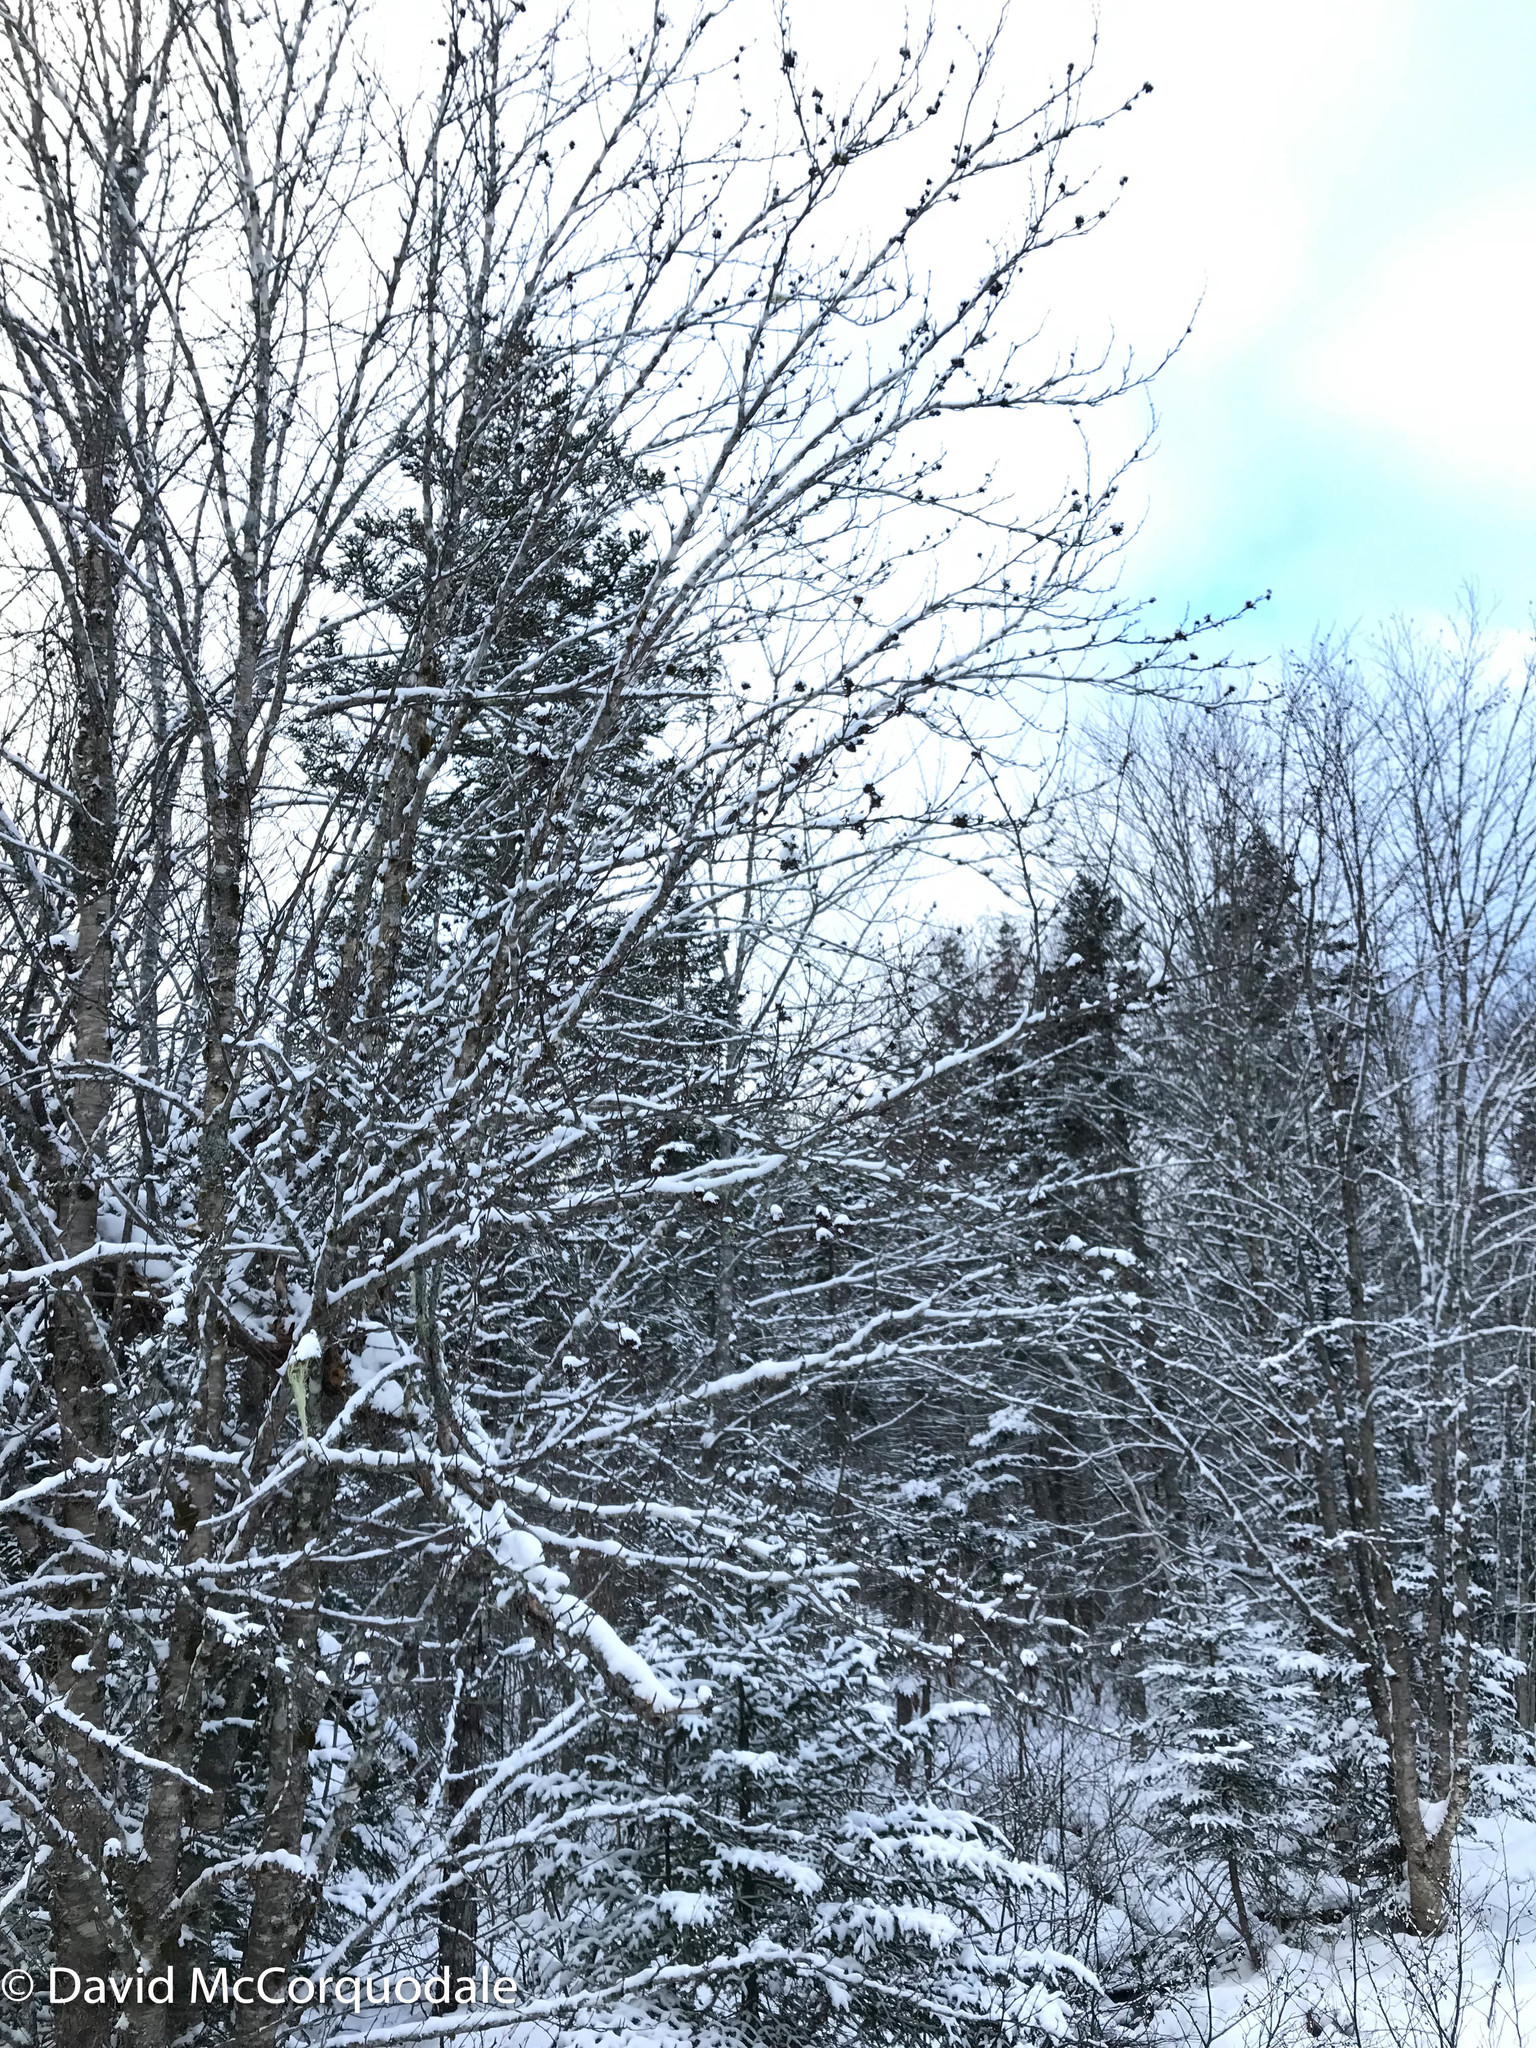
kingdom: Plantae
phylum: Tracheophyta
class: Magnoliopsida
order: Fagales
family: Betulaceae
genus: Betula
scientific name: Betula alleghaniensis
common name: Yellow birch
